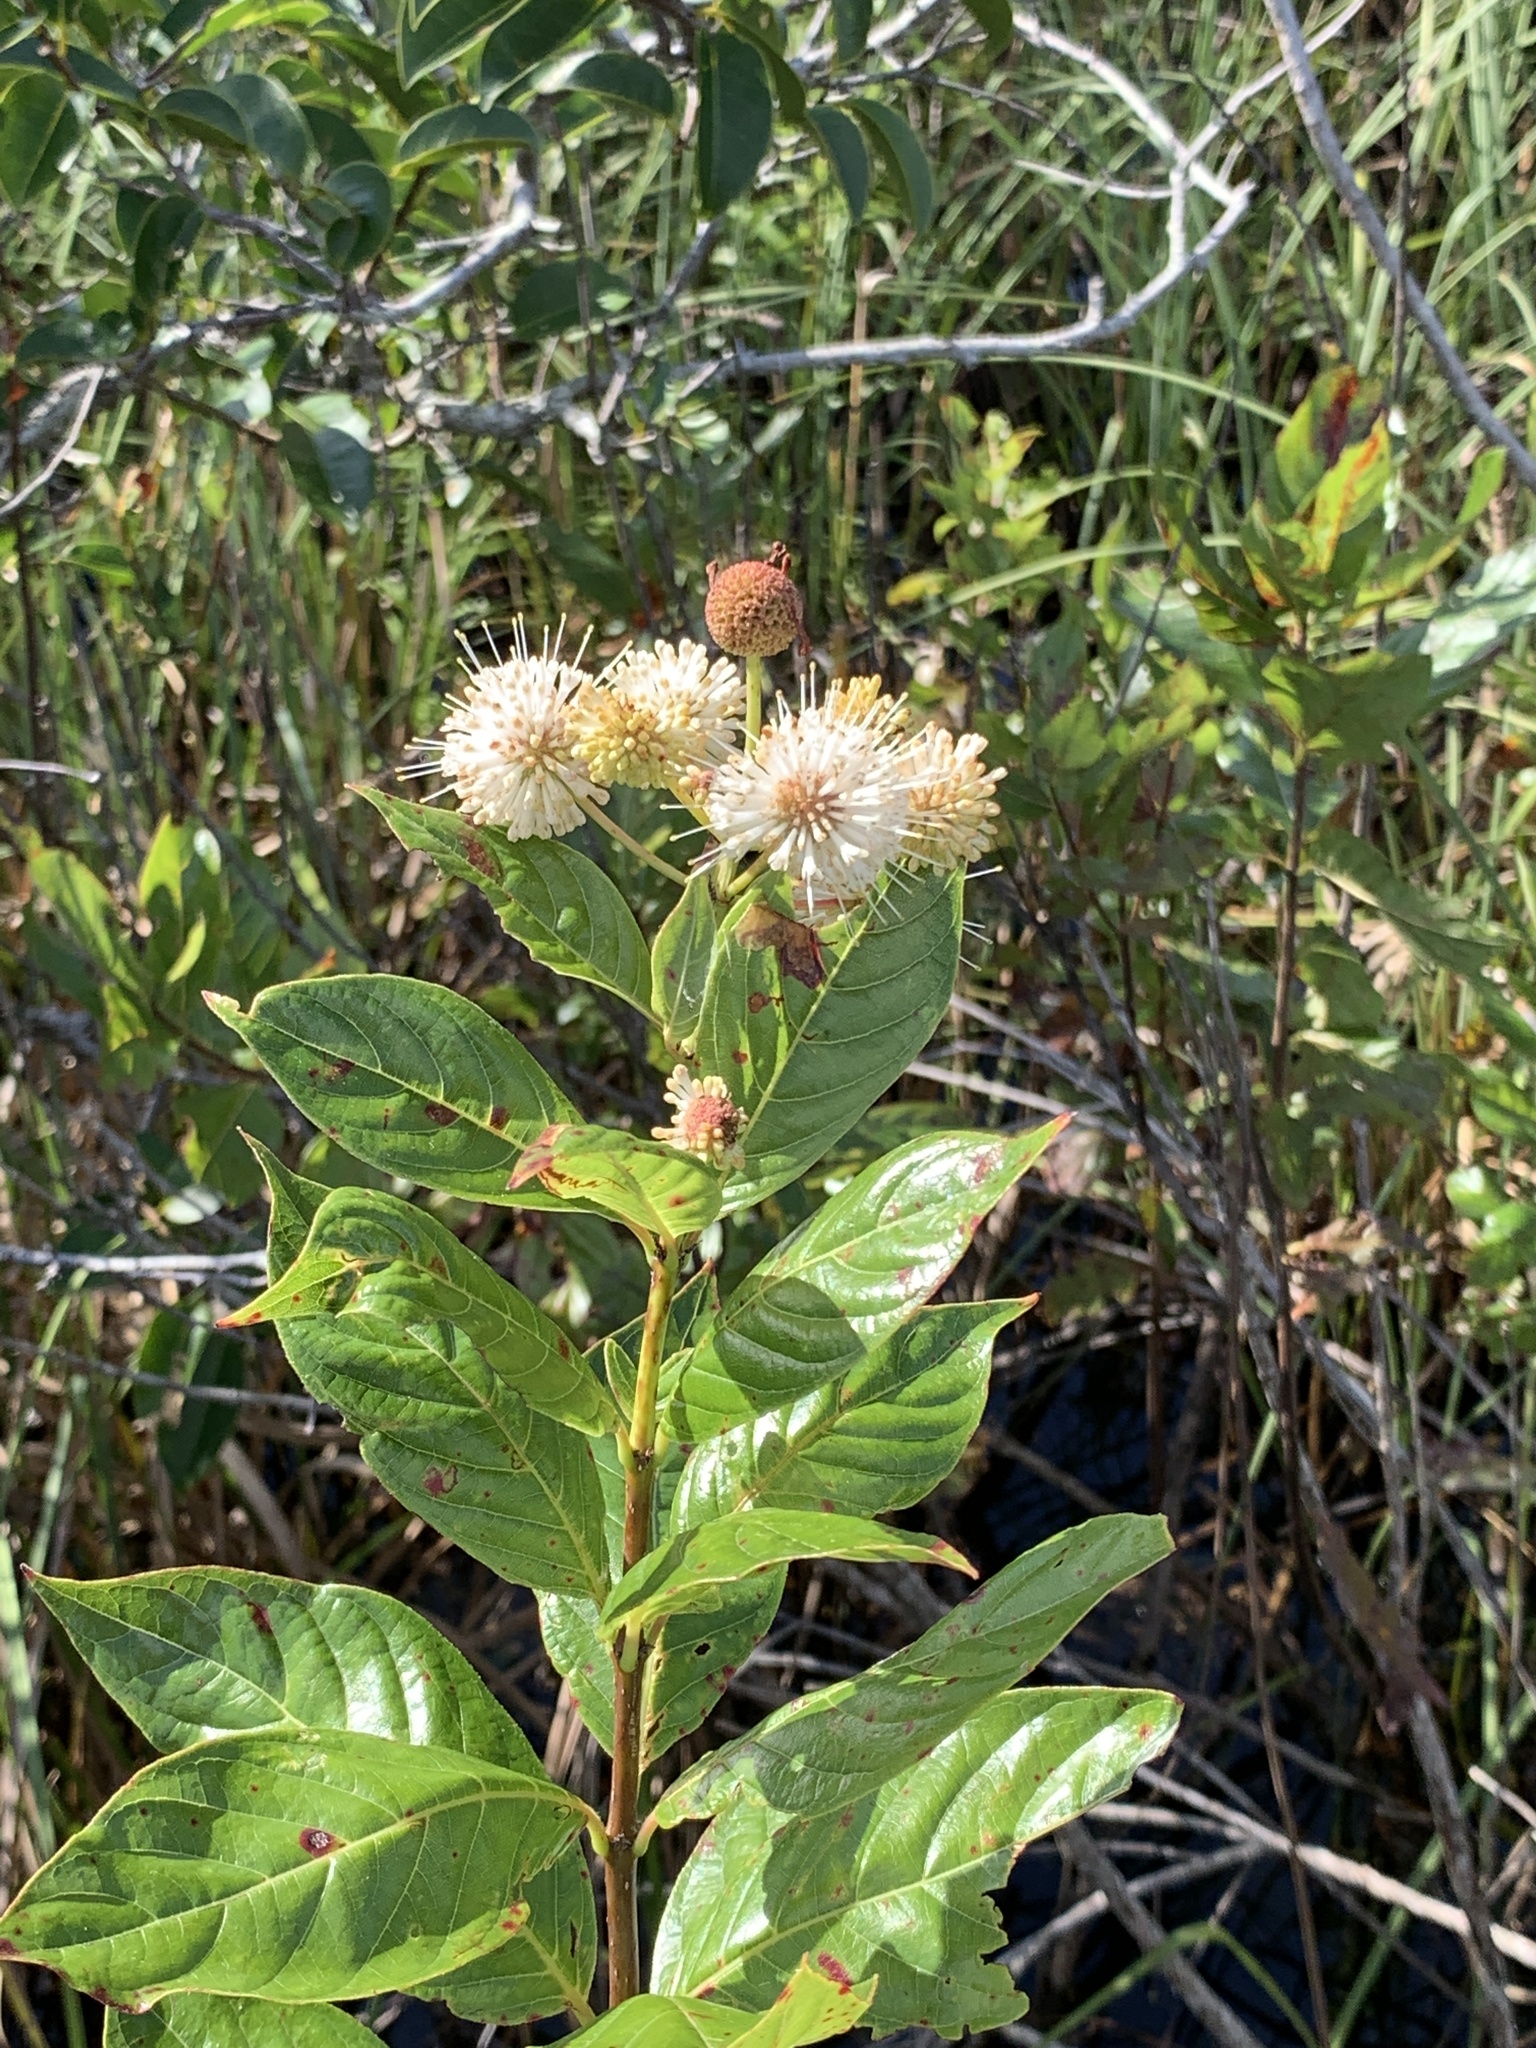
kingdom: Plantae
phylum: Tracheophyta
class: Magnoliopsida
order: Gentianales
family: Rubiaceae
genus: Cephalanthus
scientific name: Cephalanthus occidentalis
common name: Button-willow
